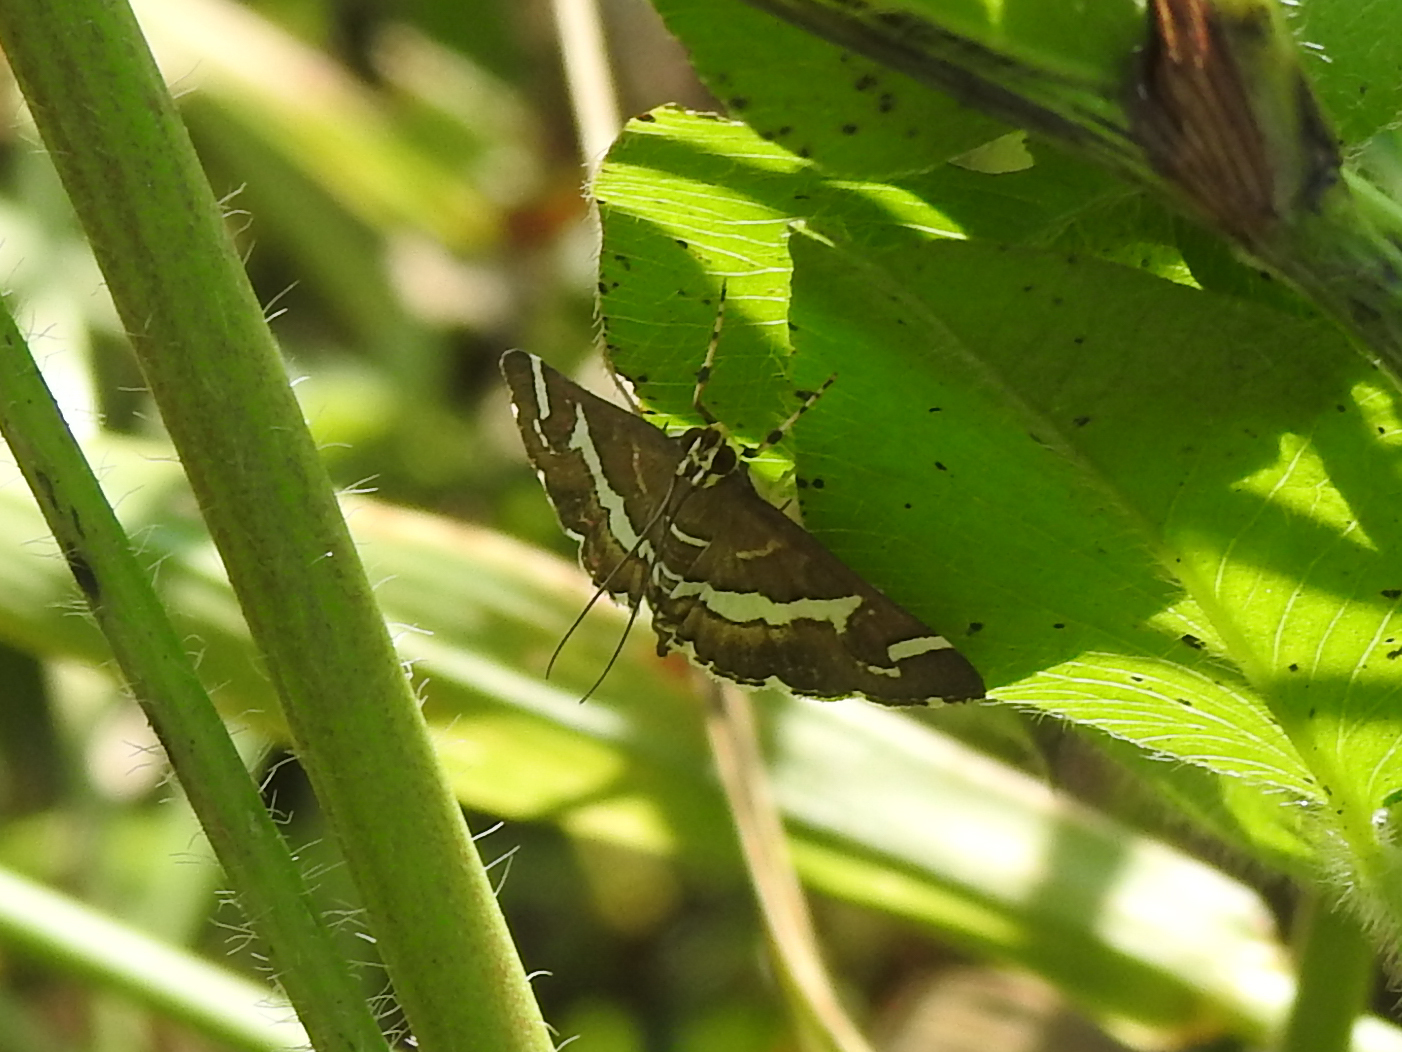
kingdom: Animalia
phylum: Arthropoda
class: Insecta
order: Lepidoptera
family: Crambidae
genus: Spoladea
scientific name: Spoladea recurvalis
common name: Beet webworm moth
